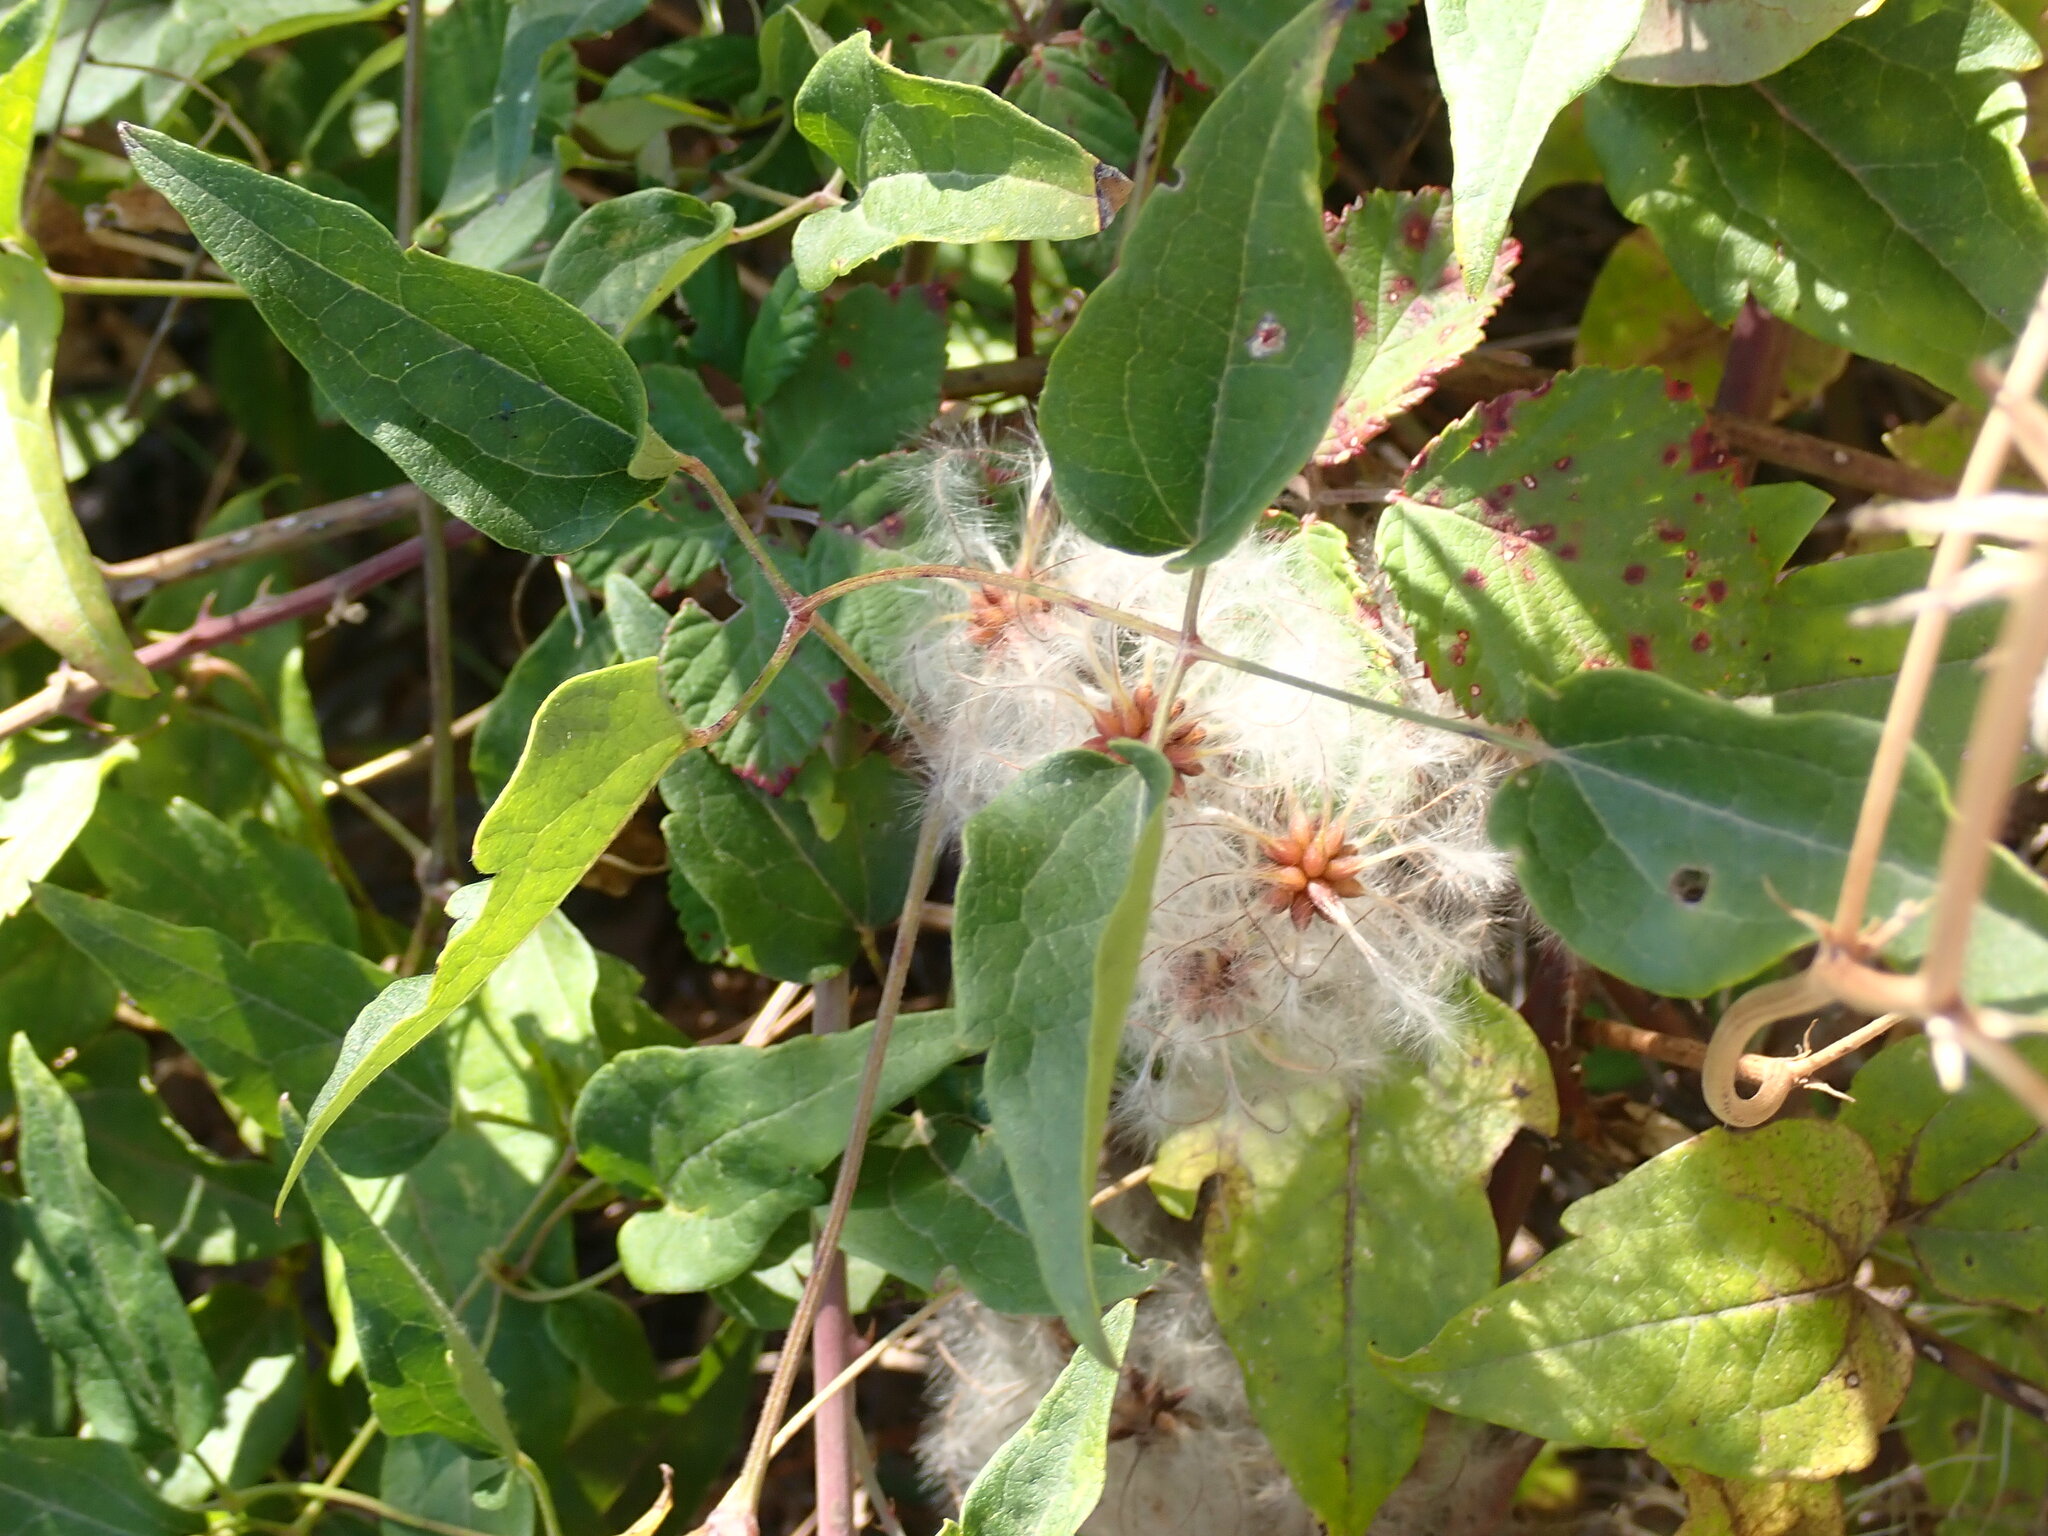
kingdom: Plantae
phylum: Tracheophyta
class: Magnoliopsida
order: Ranunculales
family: Ranunculaceae
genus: Clematis
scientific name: Clematis vitalba
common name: Evergreen clematis
